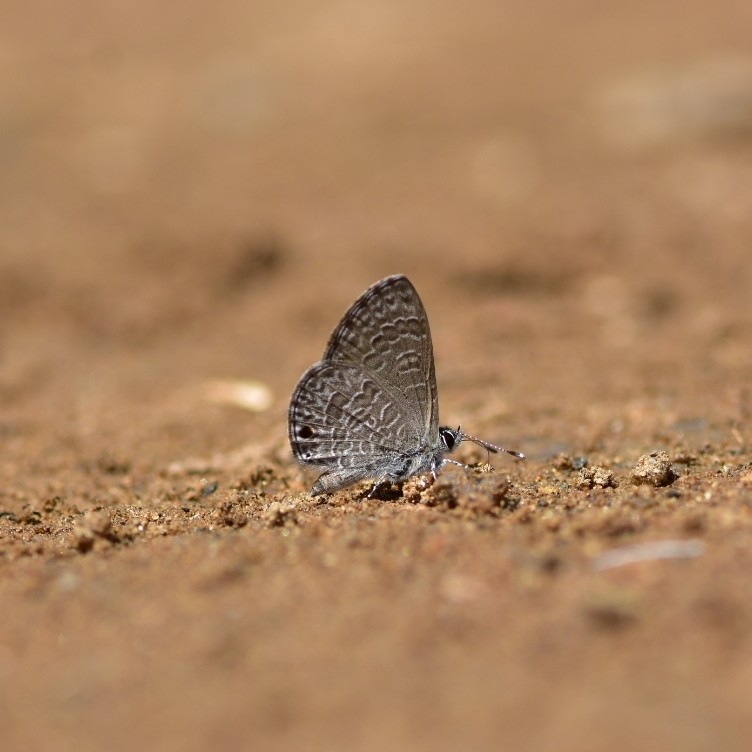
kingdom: Animalia
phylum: Arthropoda
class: Insecta
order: Lepidoptera
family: Lycaenidae
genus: Prosotas
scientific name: Prosotas noreia
